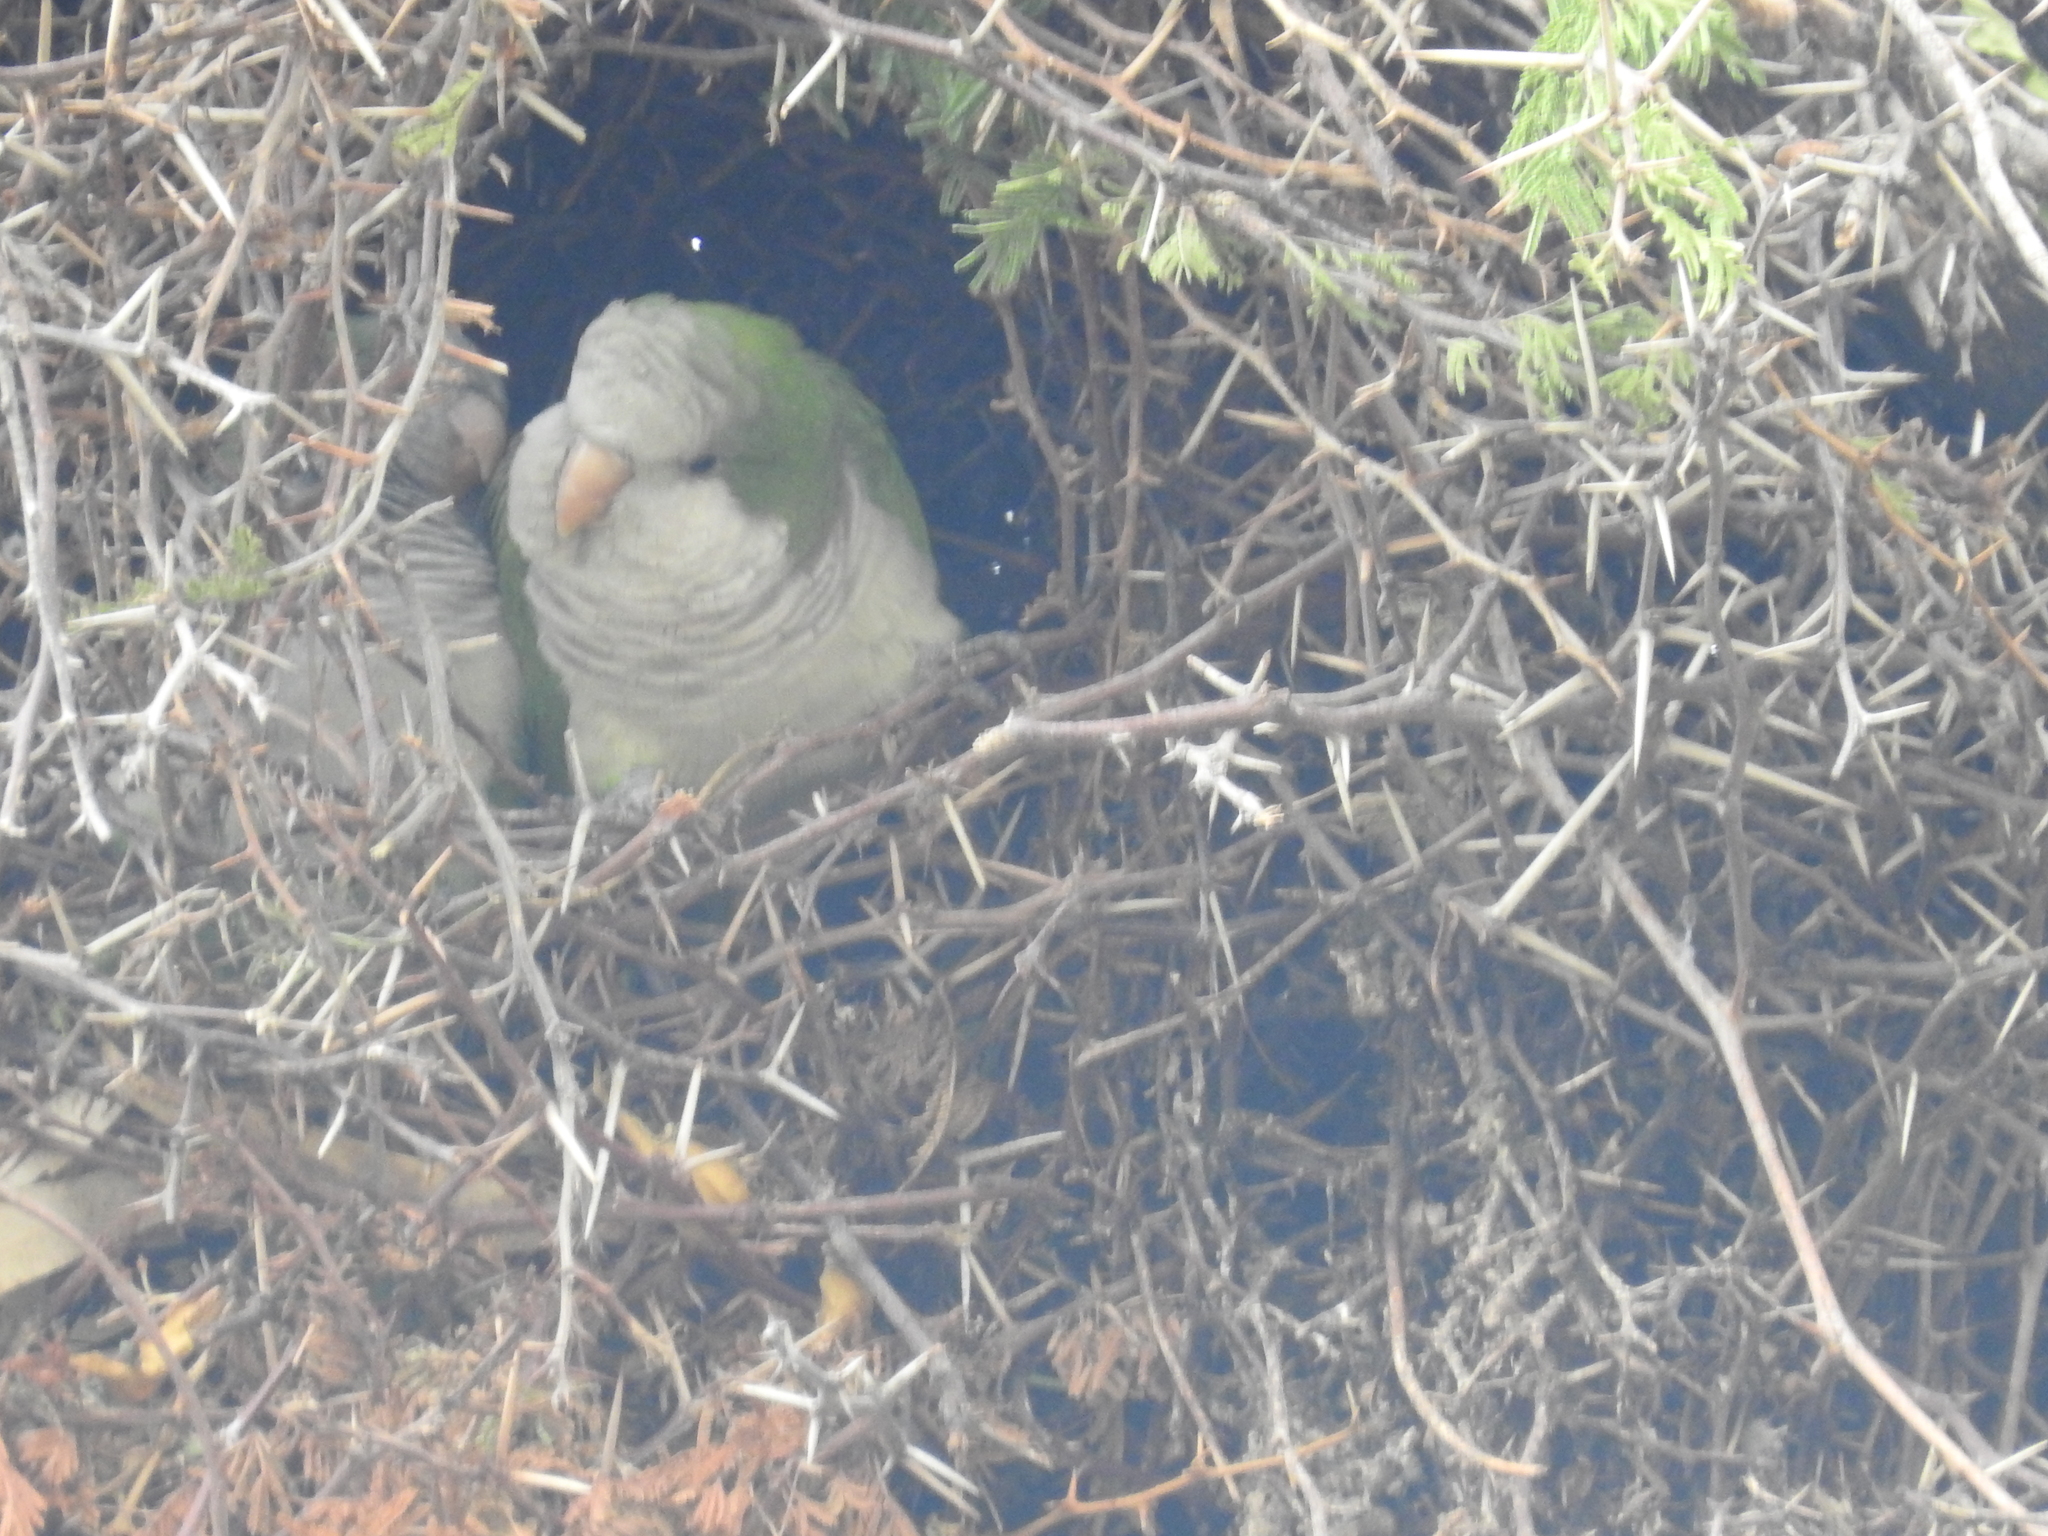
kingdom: Animalia
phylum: Chordata
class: Aves
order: Psittaciformes
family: Psittacidae
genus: Myiopsitta
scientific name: Myiopsitta monachus
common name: Monk parakeet
